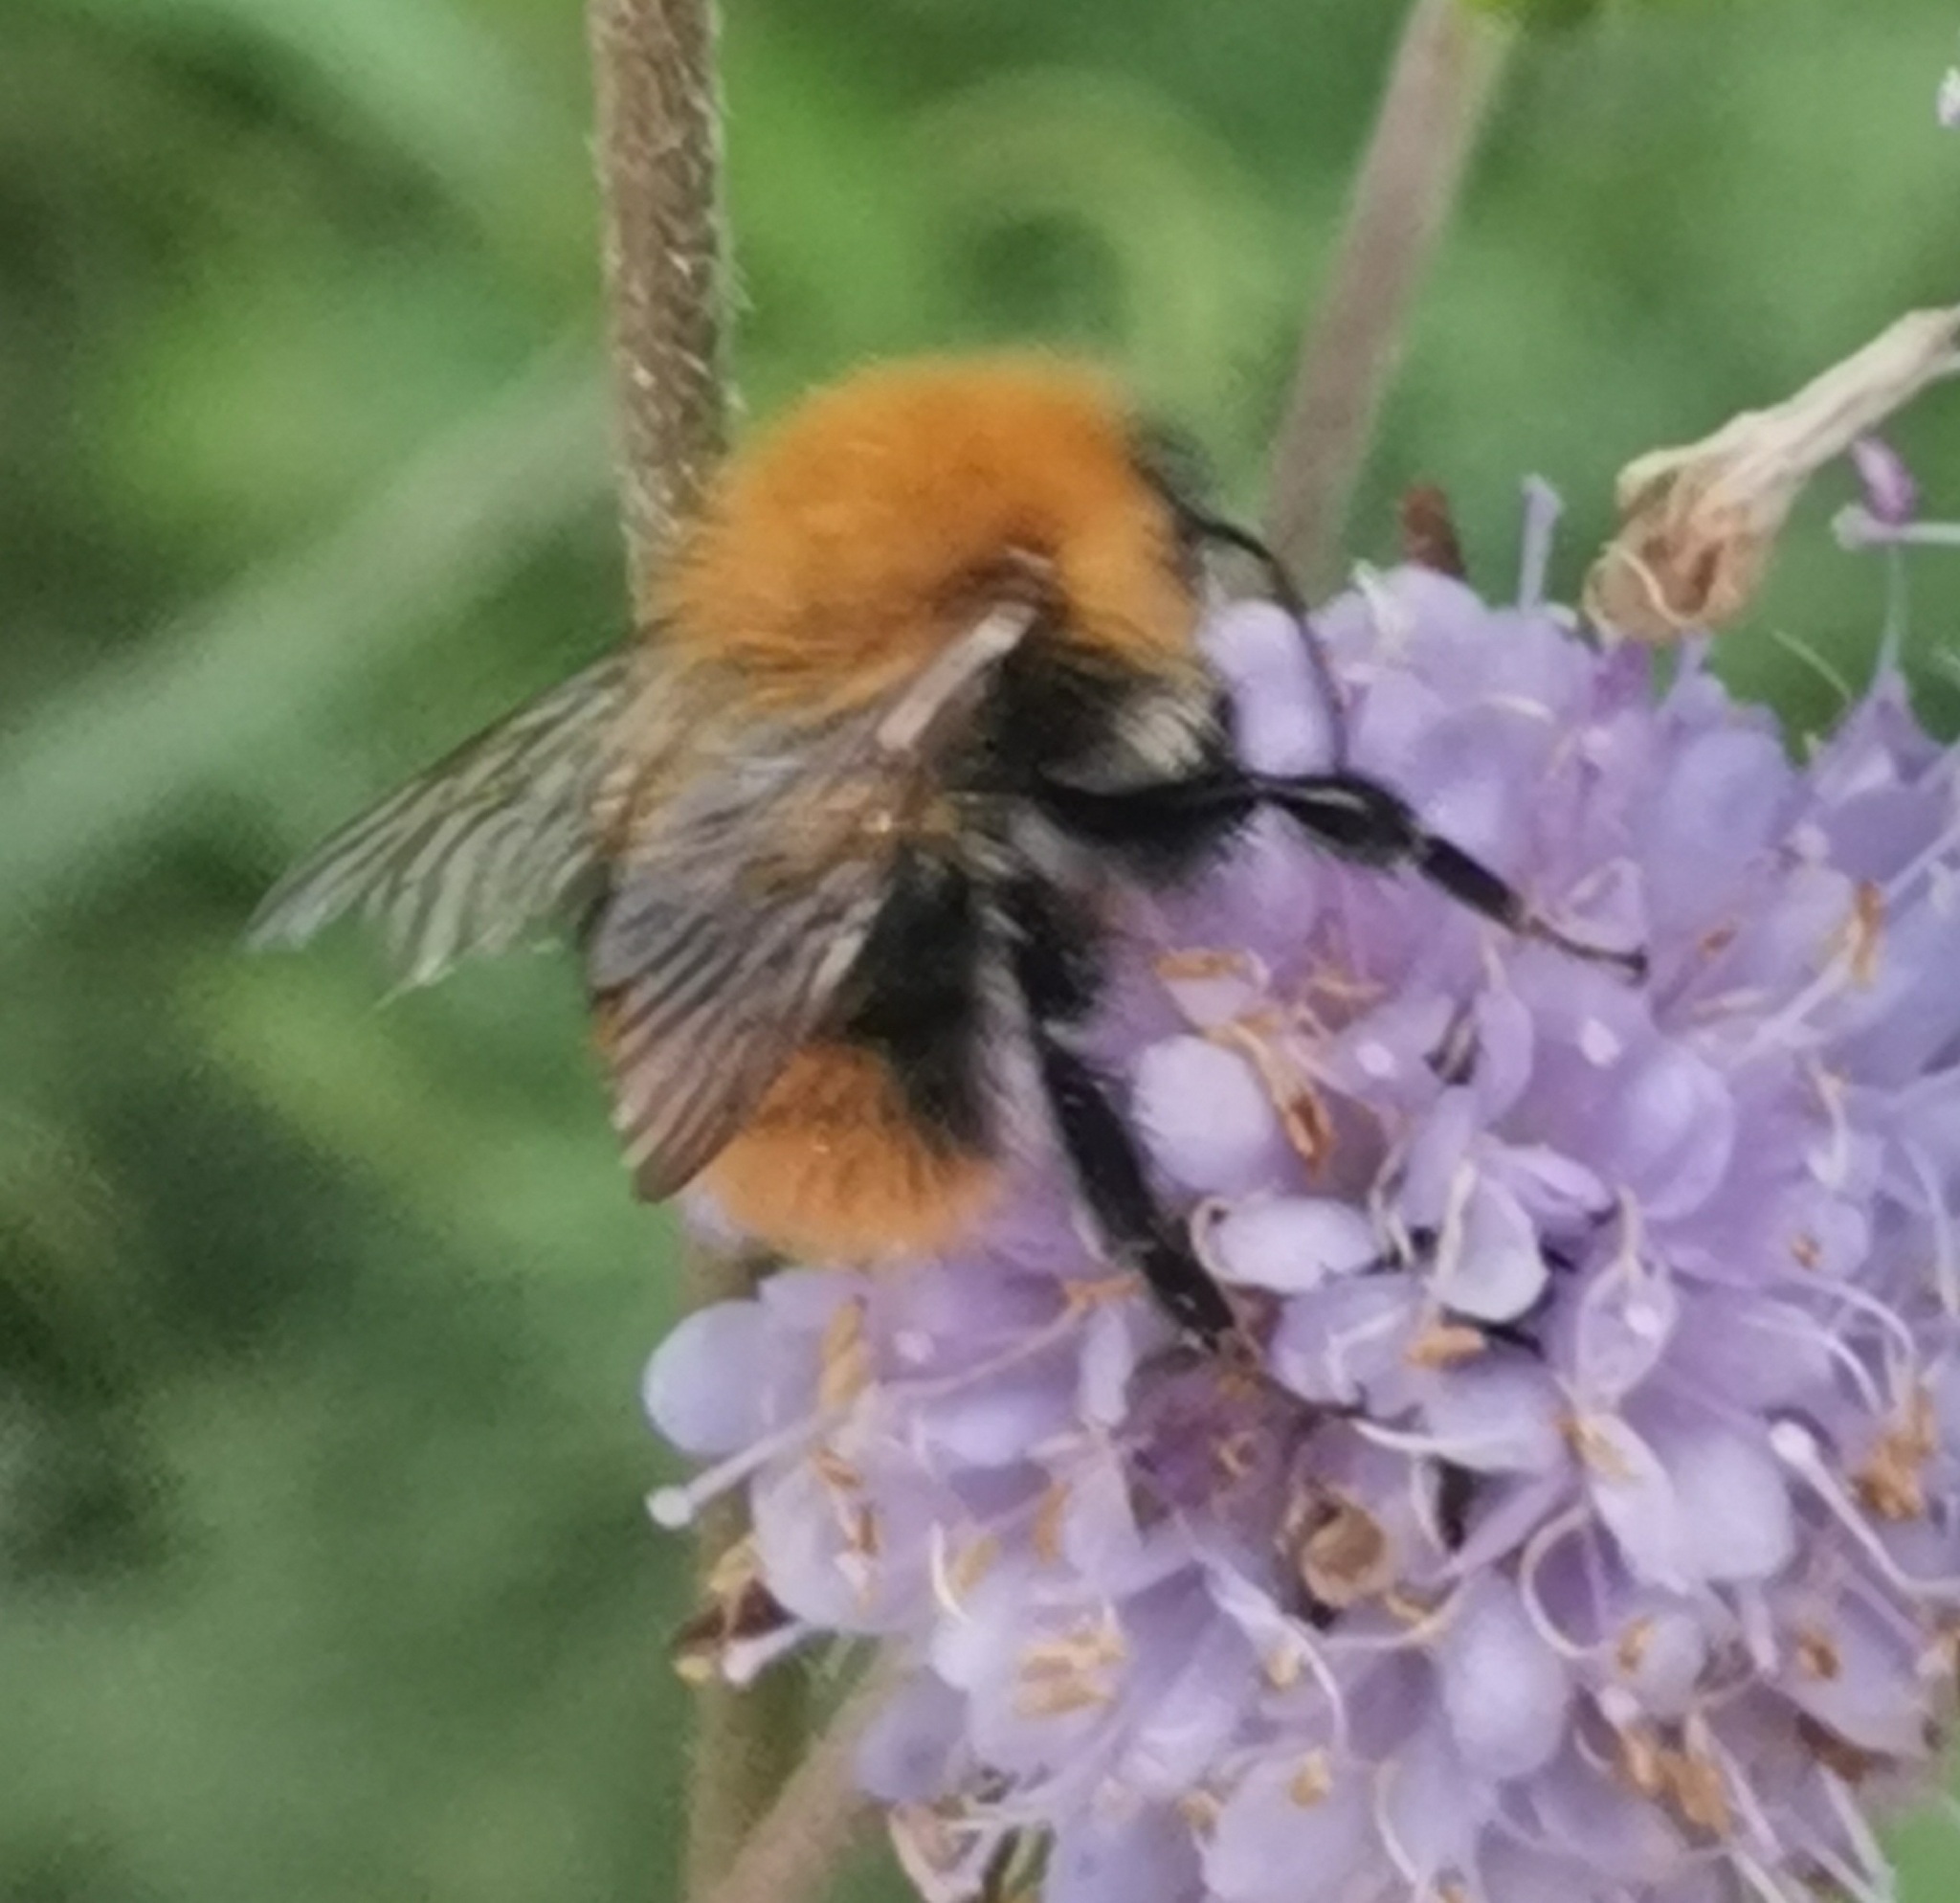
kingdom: Animalia
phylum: Arthropoda
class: Insecta
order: Hymenoptera
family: Apidae
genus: Bombus
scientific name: Bombus pascuorum
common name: Common carder bee
